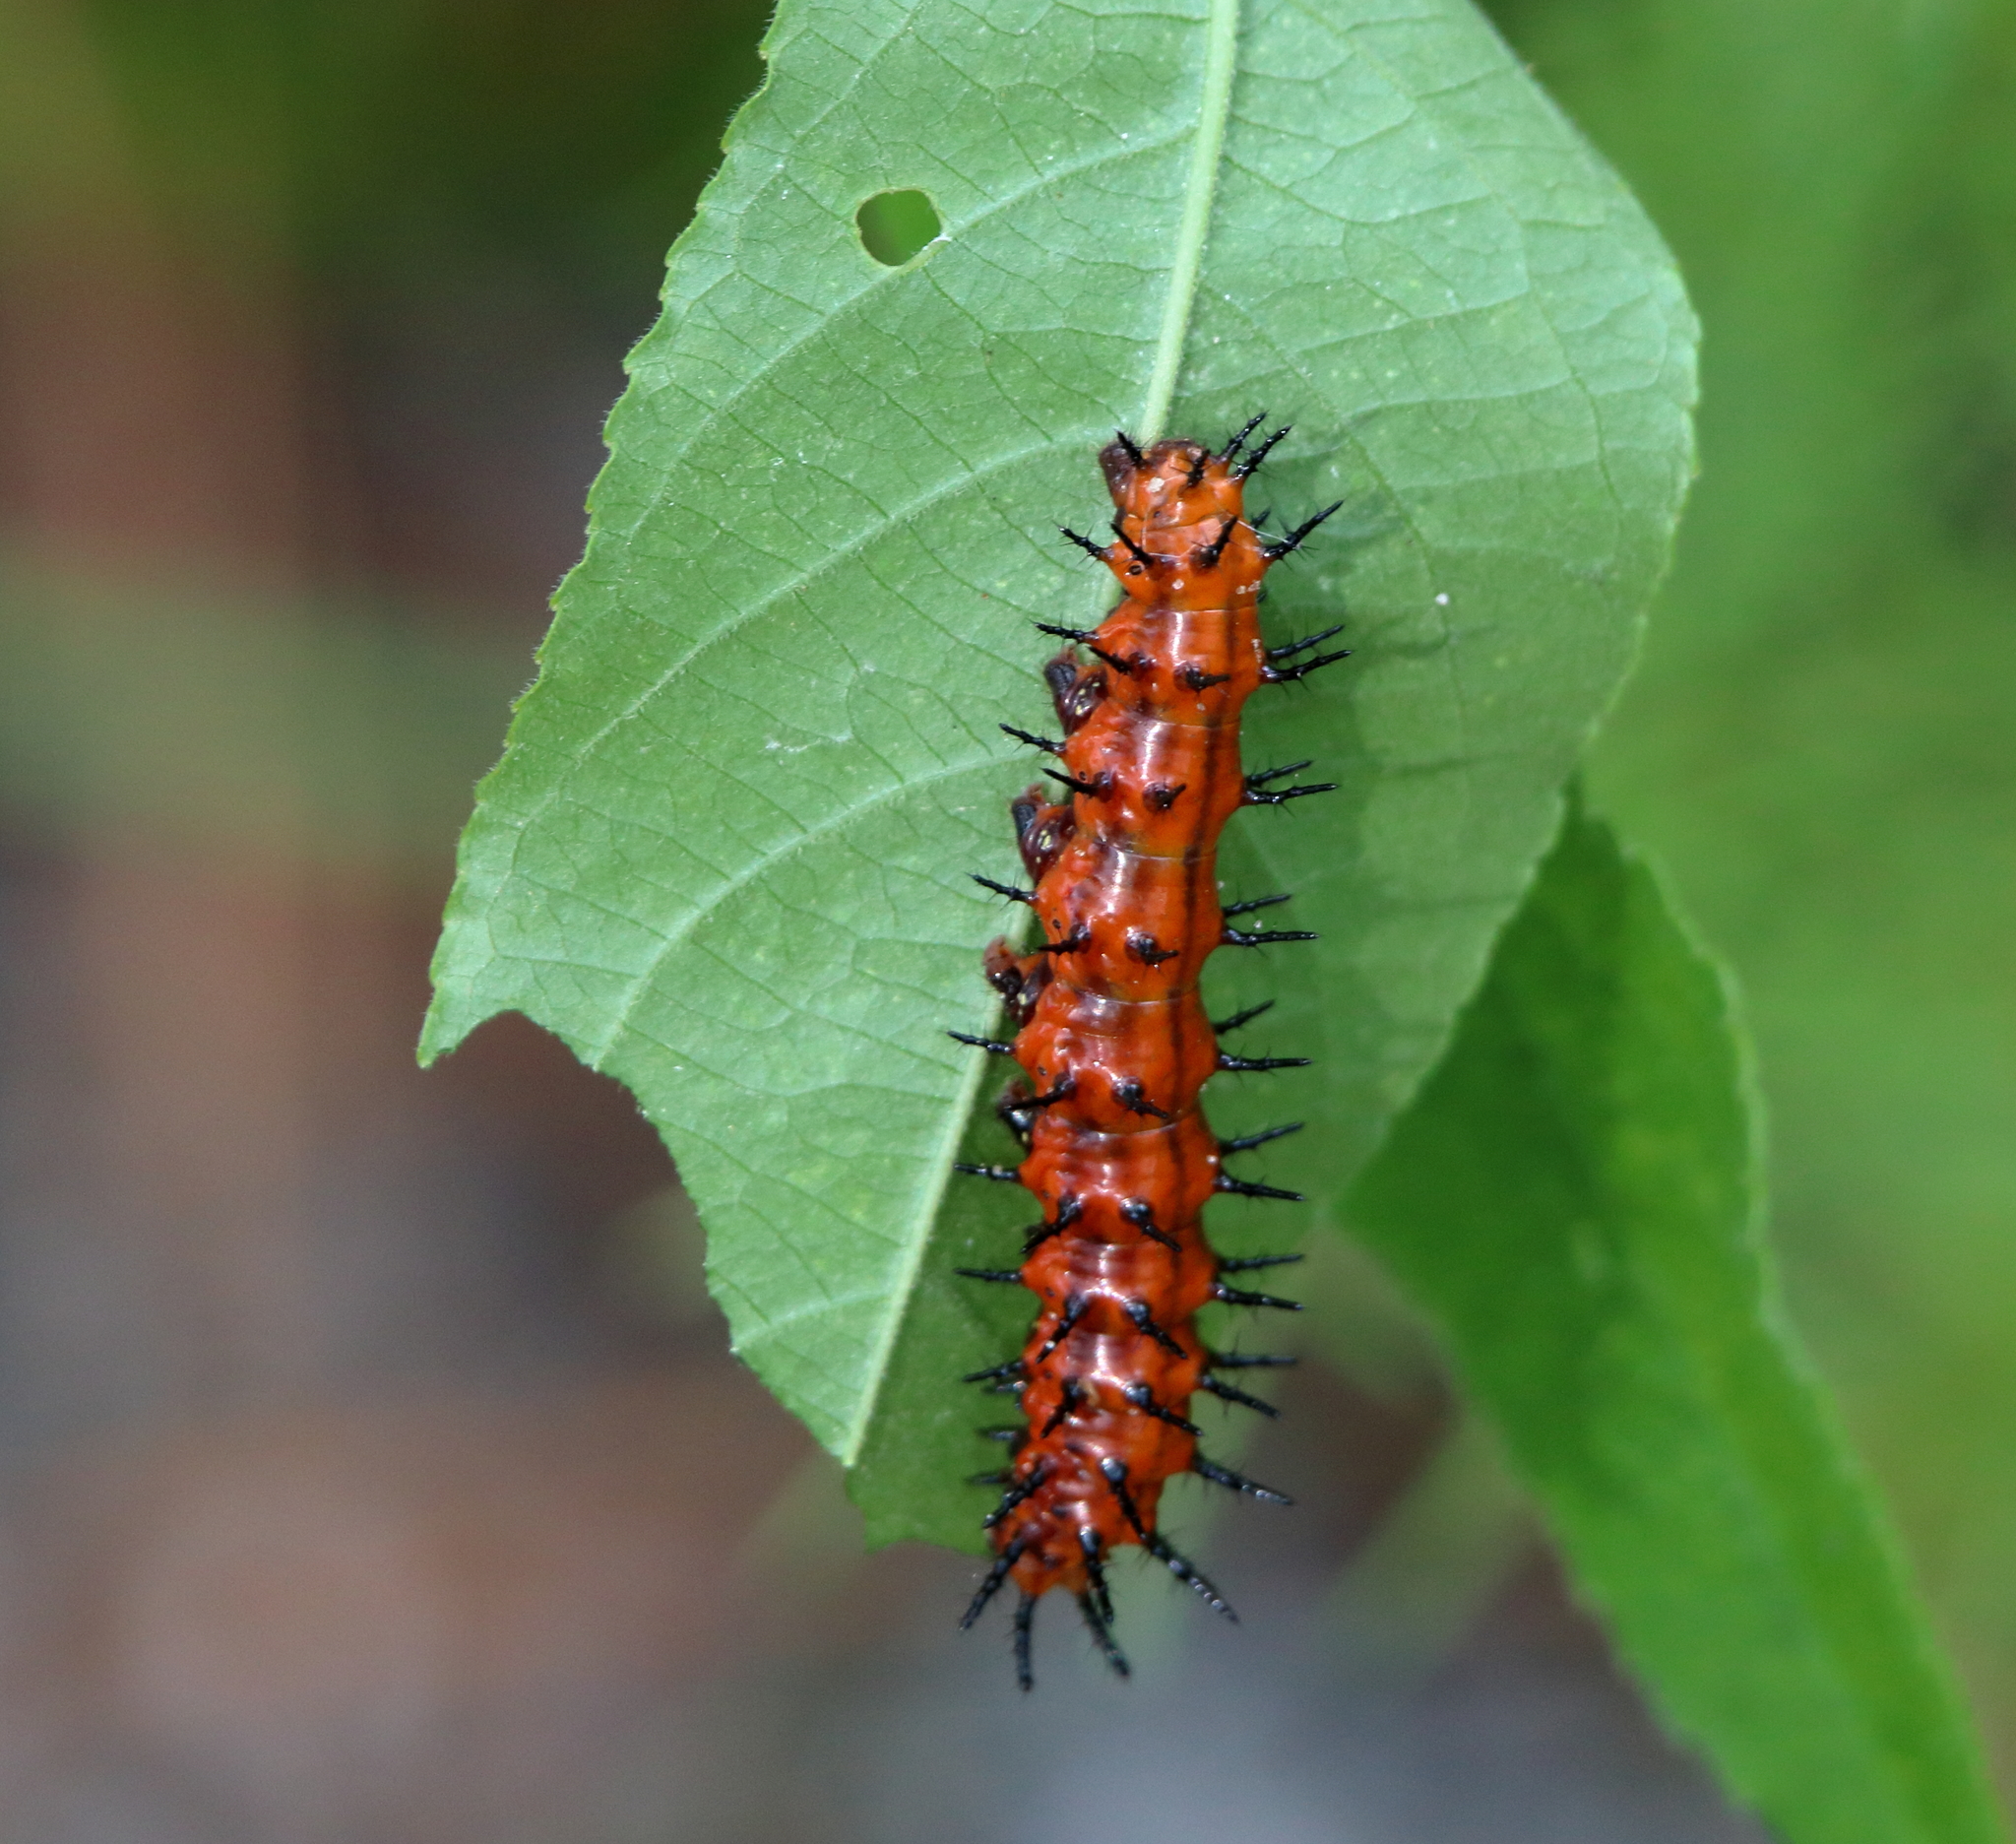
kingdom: Animalia
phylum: Arthropoda
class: Insecta
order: Lepidoptera
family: Nymphalidae
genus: Dione
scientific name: Dione vanillae
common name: Gulf fritillary
